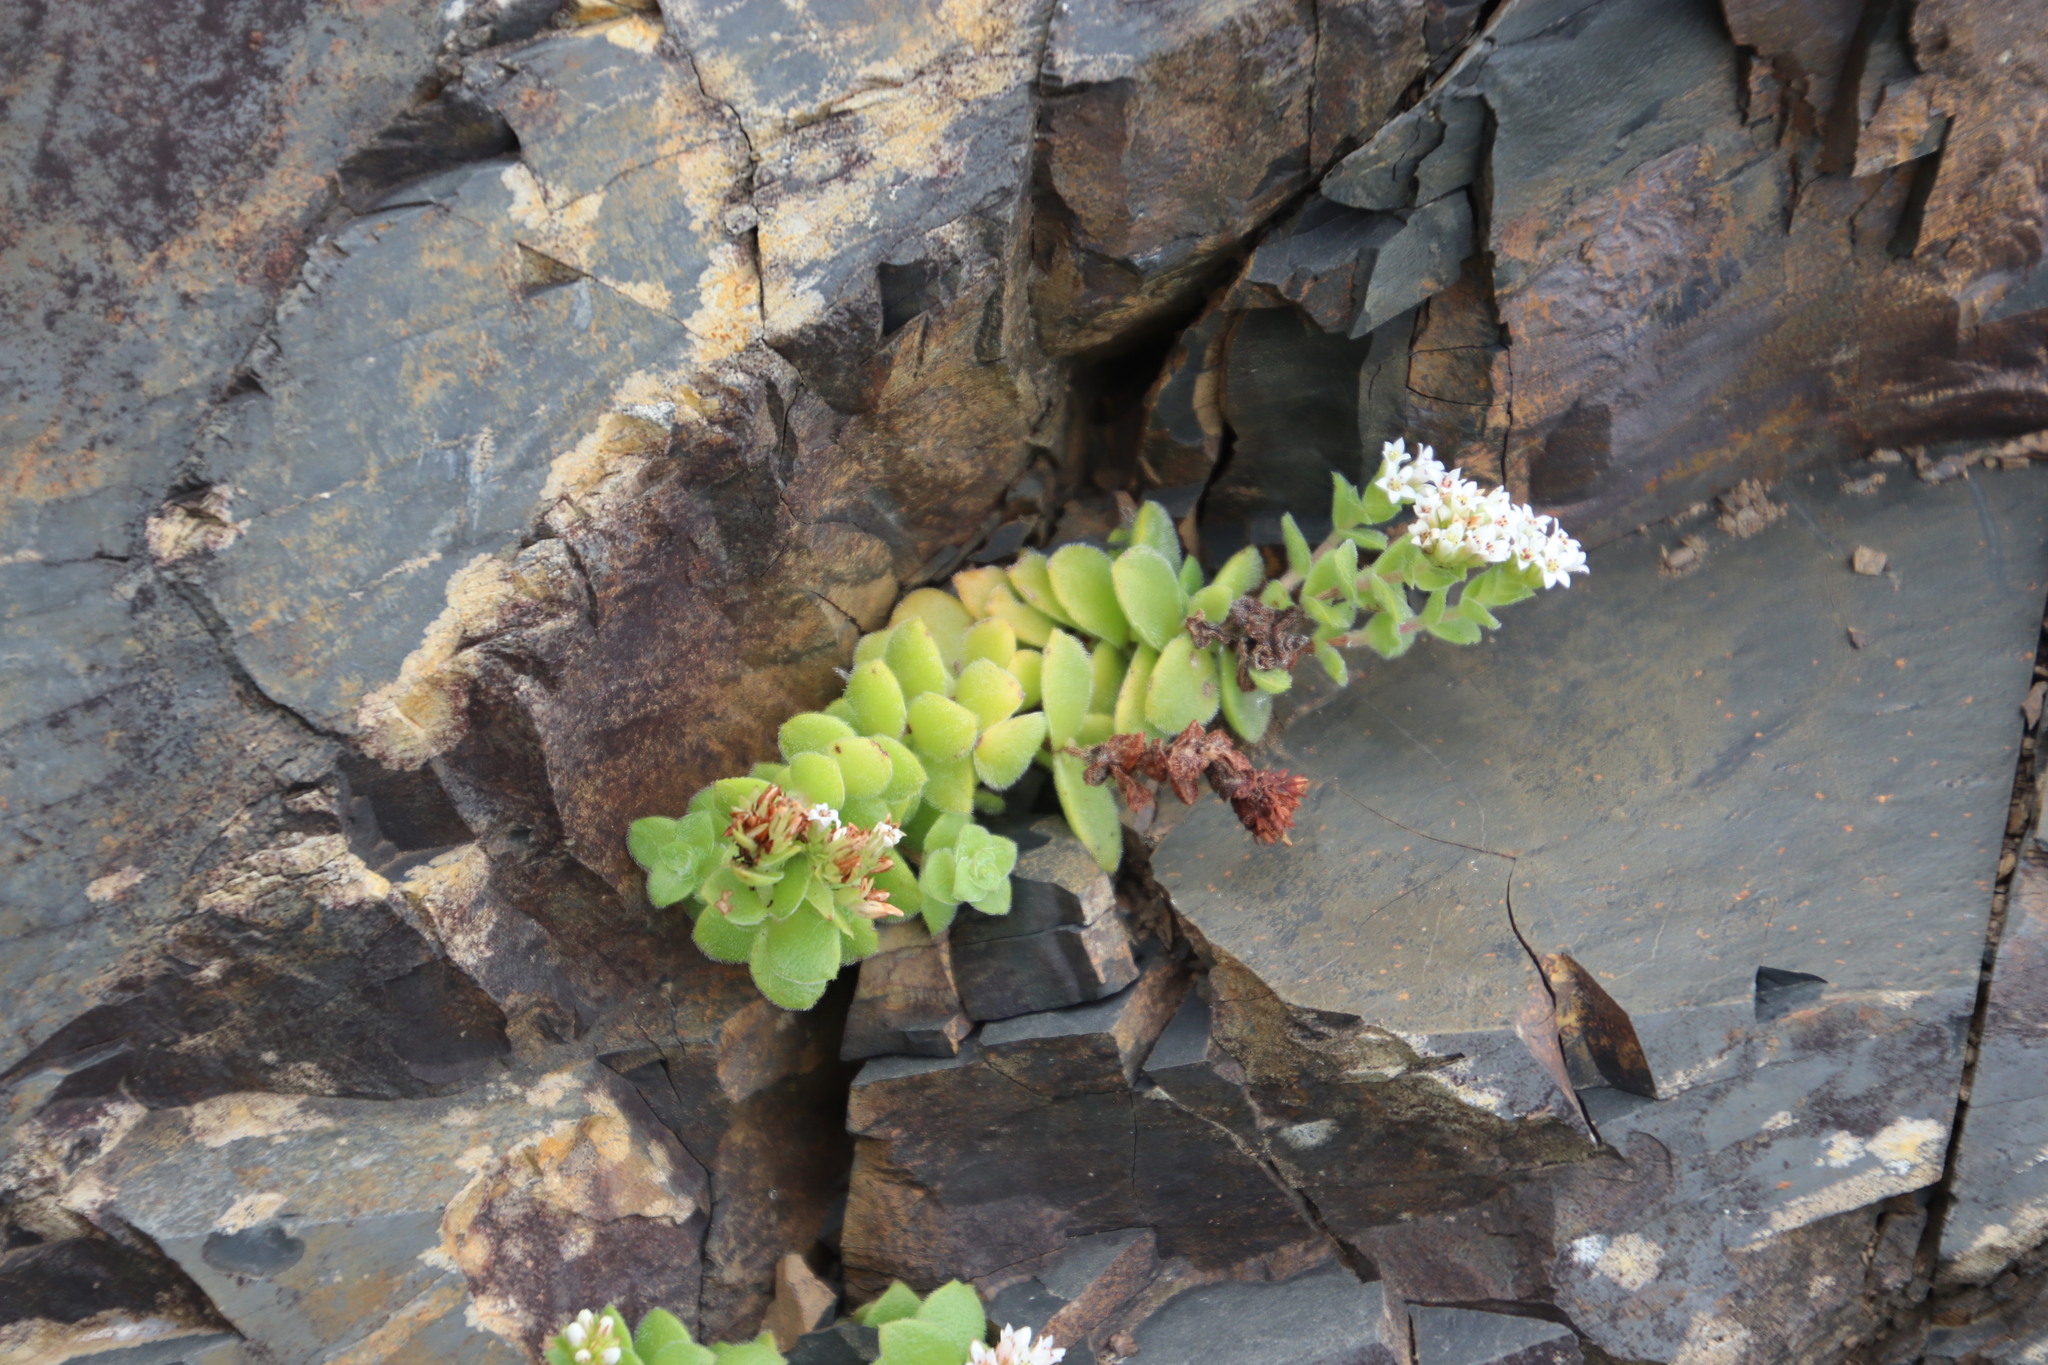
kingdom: Plantae
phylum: Tracheophyta
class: Magnoliopsida
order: Saxifragales
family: Crassulaceae
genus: Crassula
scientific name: Crassula obovata
